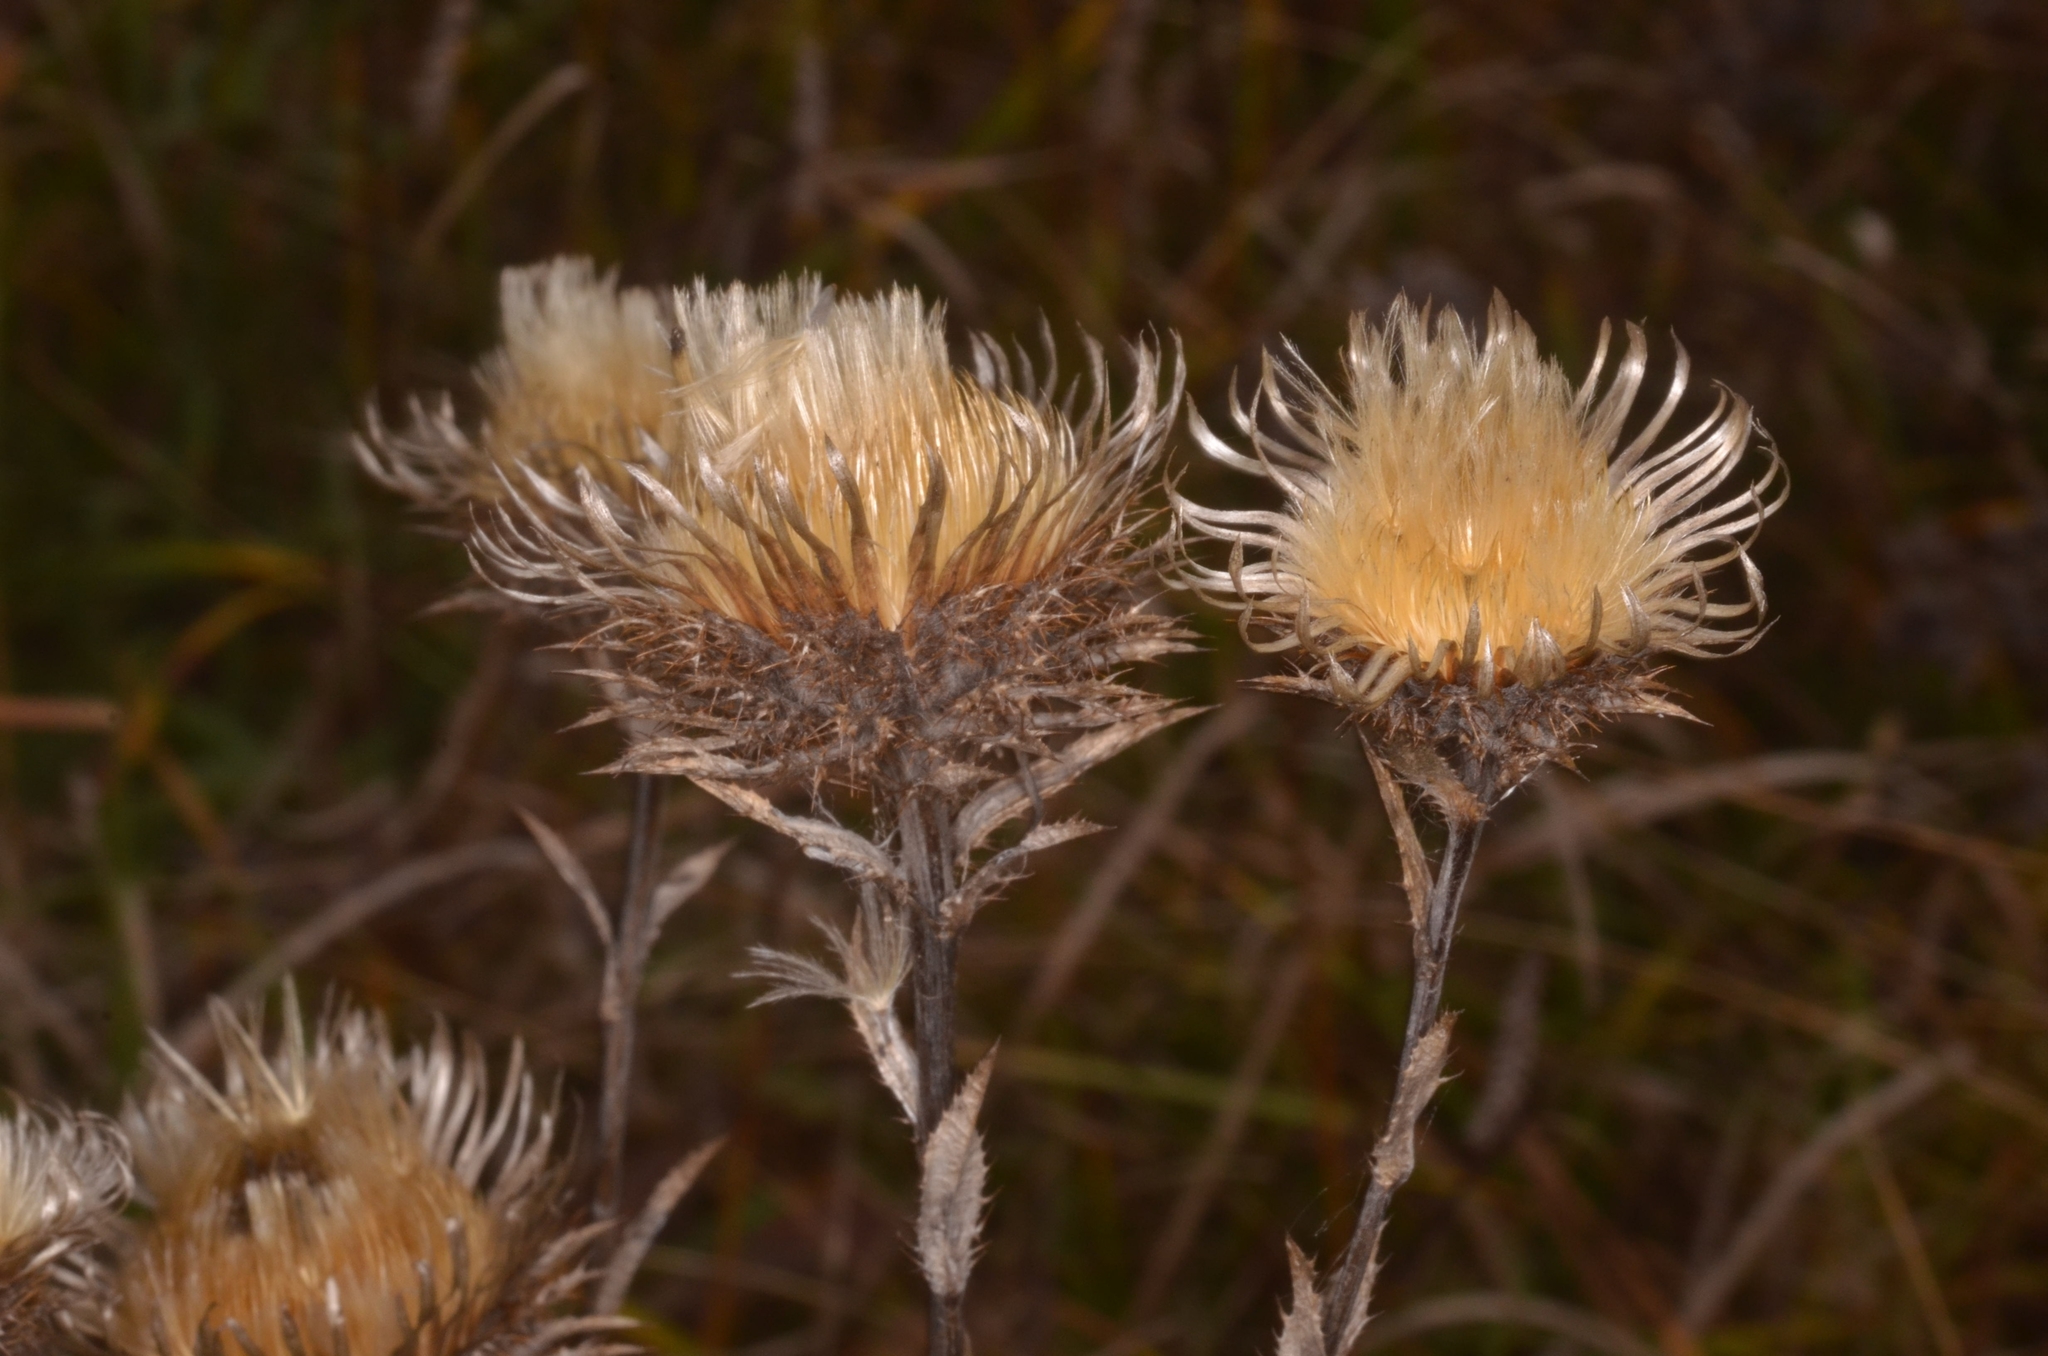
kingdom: Plantae
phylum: Tracheophyta
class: Magnoliopsida
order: Asterales
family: Asteraceae
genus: Carlina
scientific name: Carlina biebersteinii
